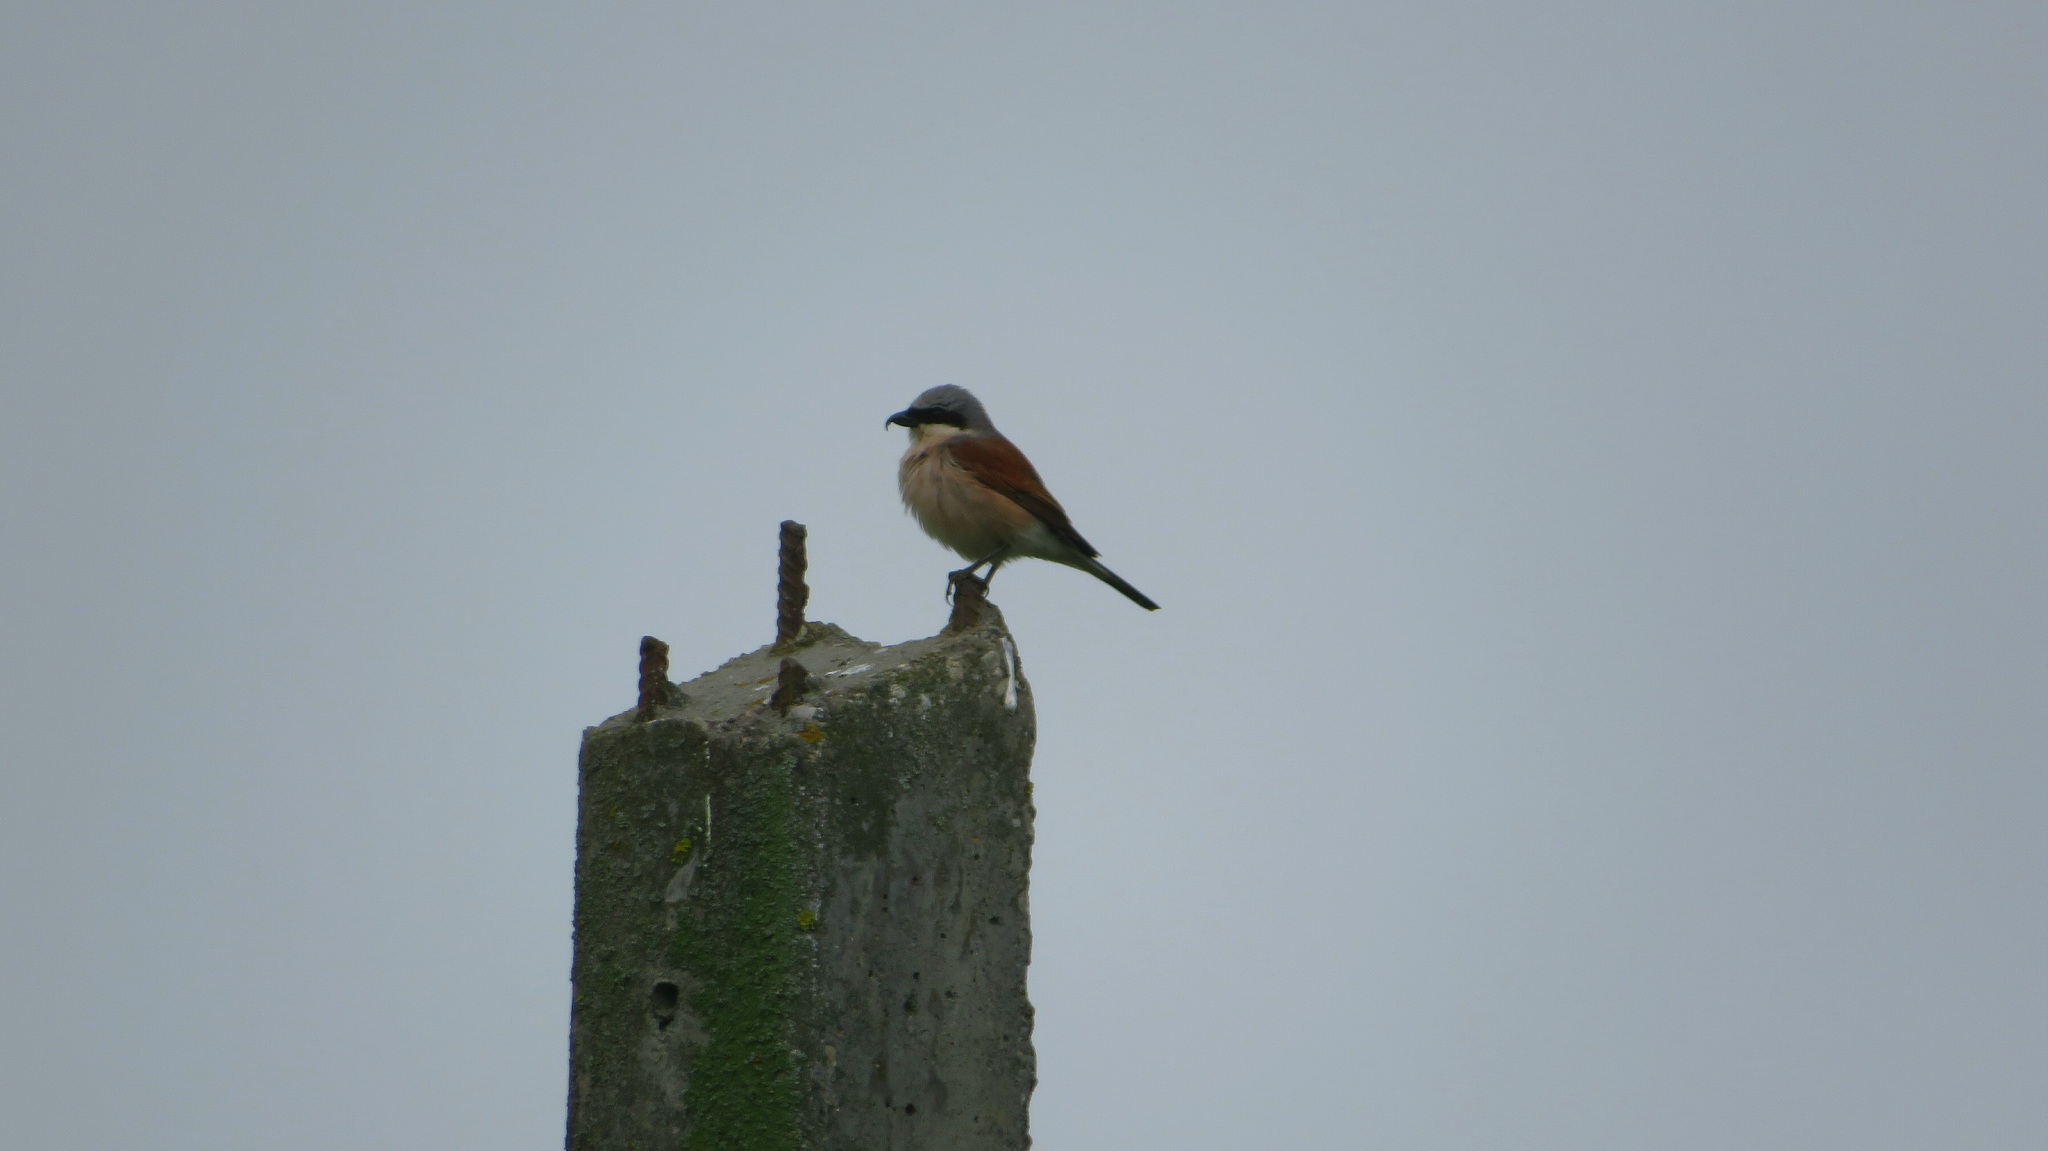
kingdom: Animalia
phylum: Chordata
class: Aves
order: Passeriformes
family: Laniidae
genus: Lanius
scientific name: Lanius collurio
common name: Red-backed shrike
